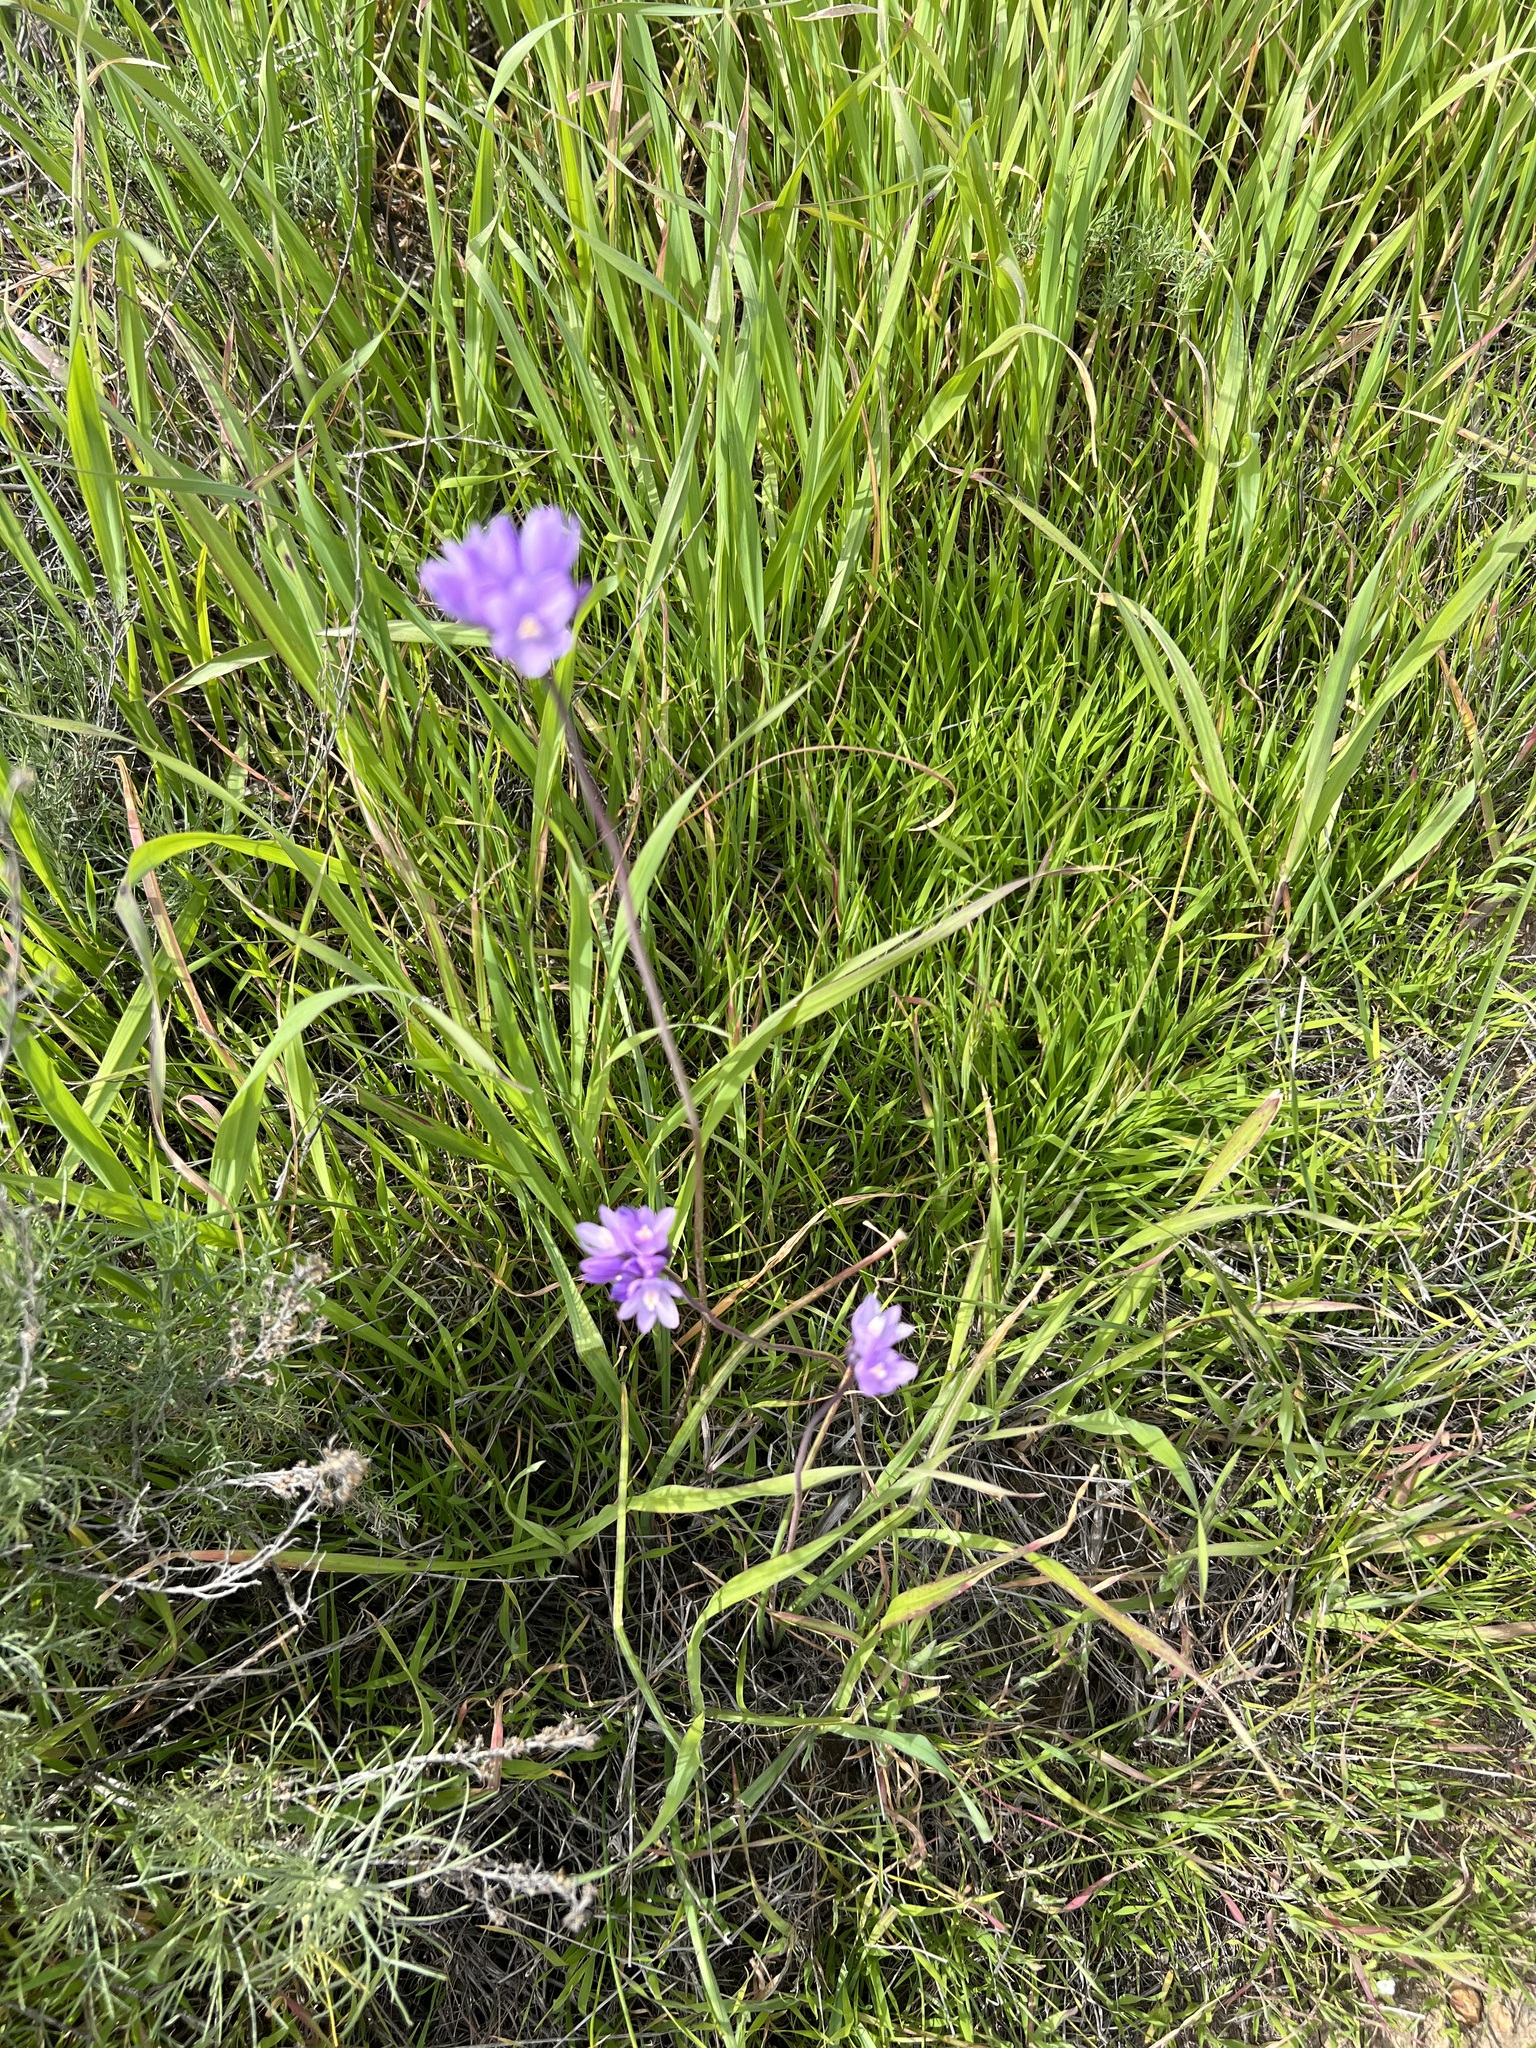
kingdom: Plantae
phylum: Tracheophyta
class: Liliopsida
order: Asparagales
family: Asparagaceae
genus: Dipterostemon
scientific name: Dipterostemon capitatus
